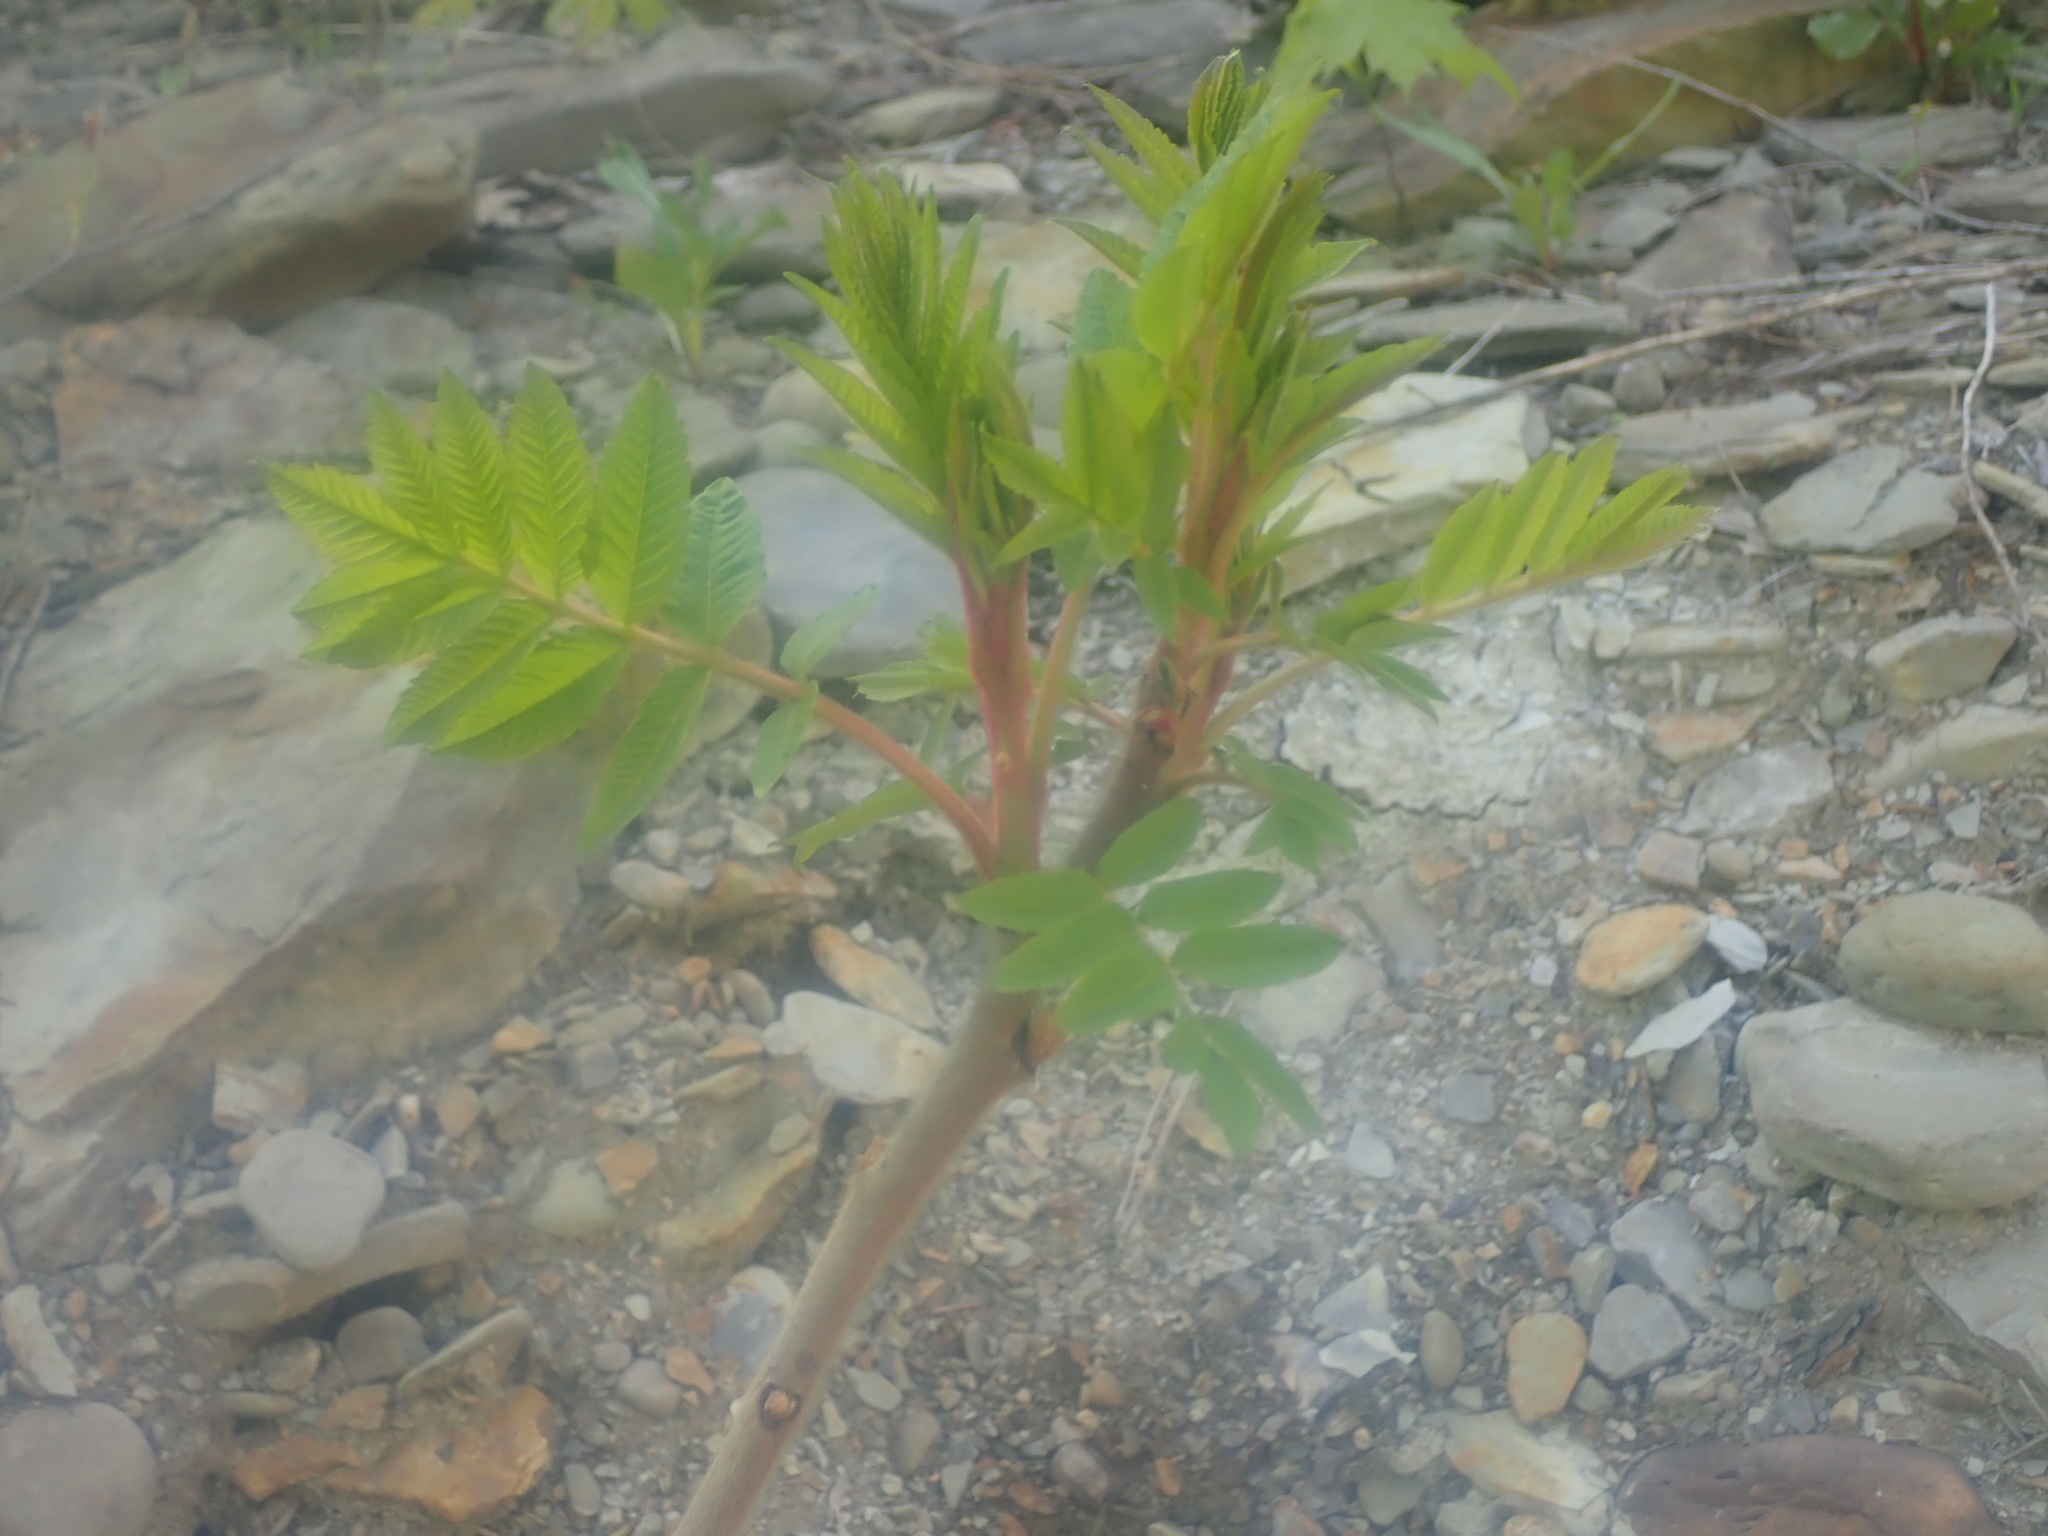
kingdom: Plantae
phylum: Tracheophyta
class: Magnoliopsida
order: Sapindales
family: Anacardiaceae
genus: Rhus
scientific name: Rhus typhina
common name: Staghorn sumac
